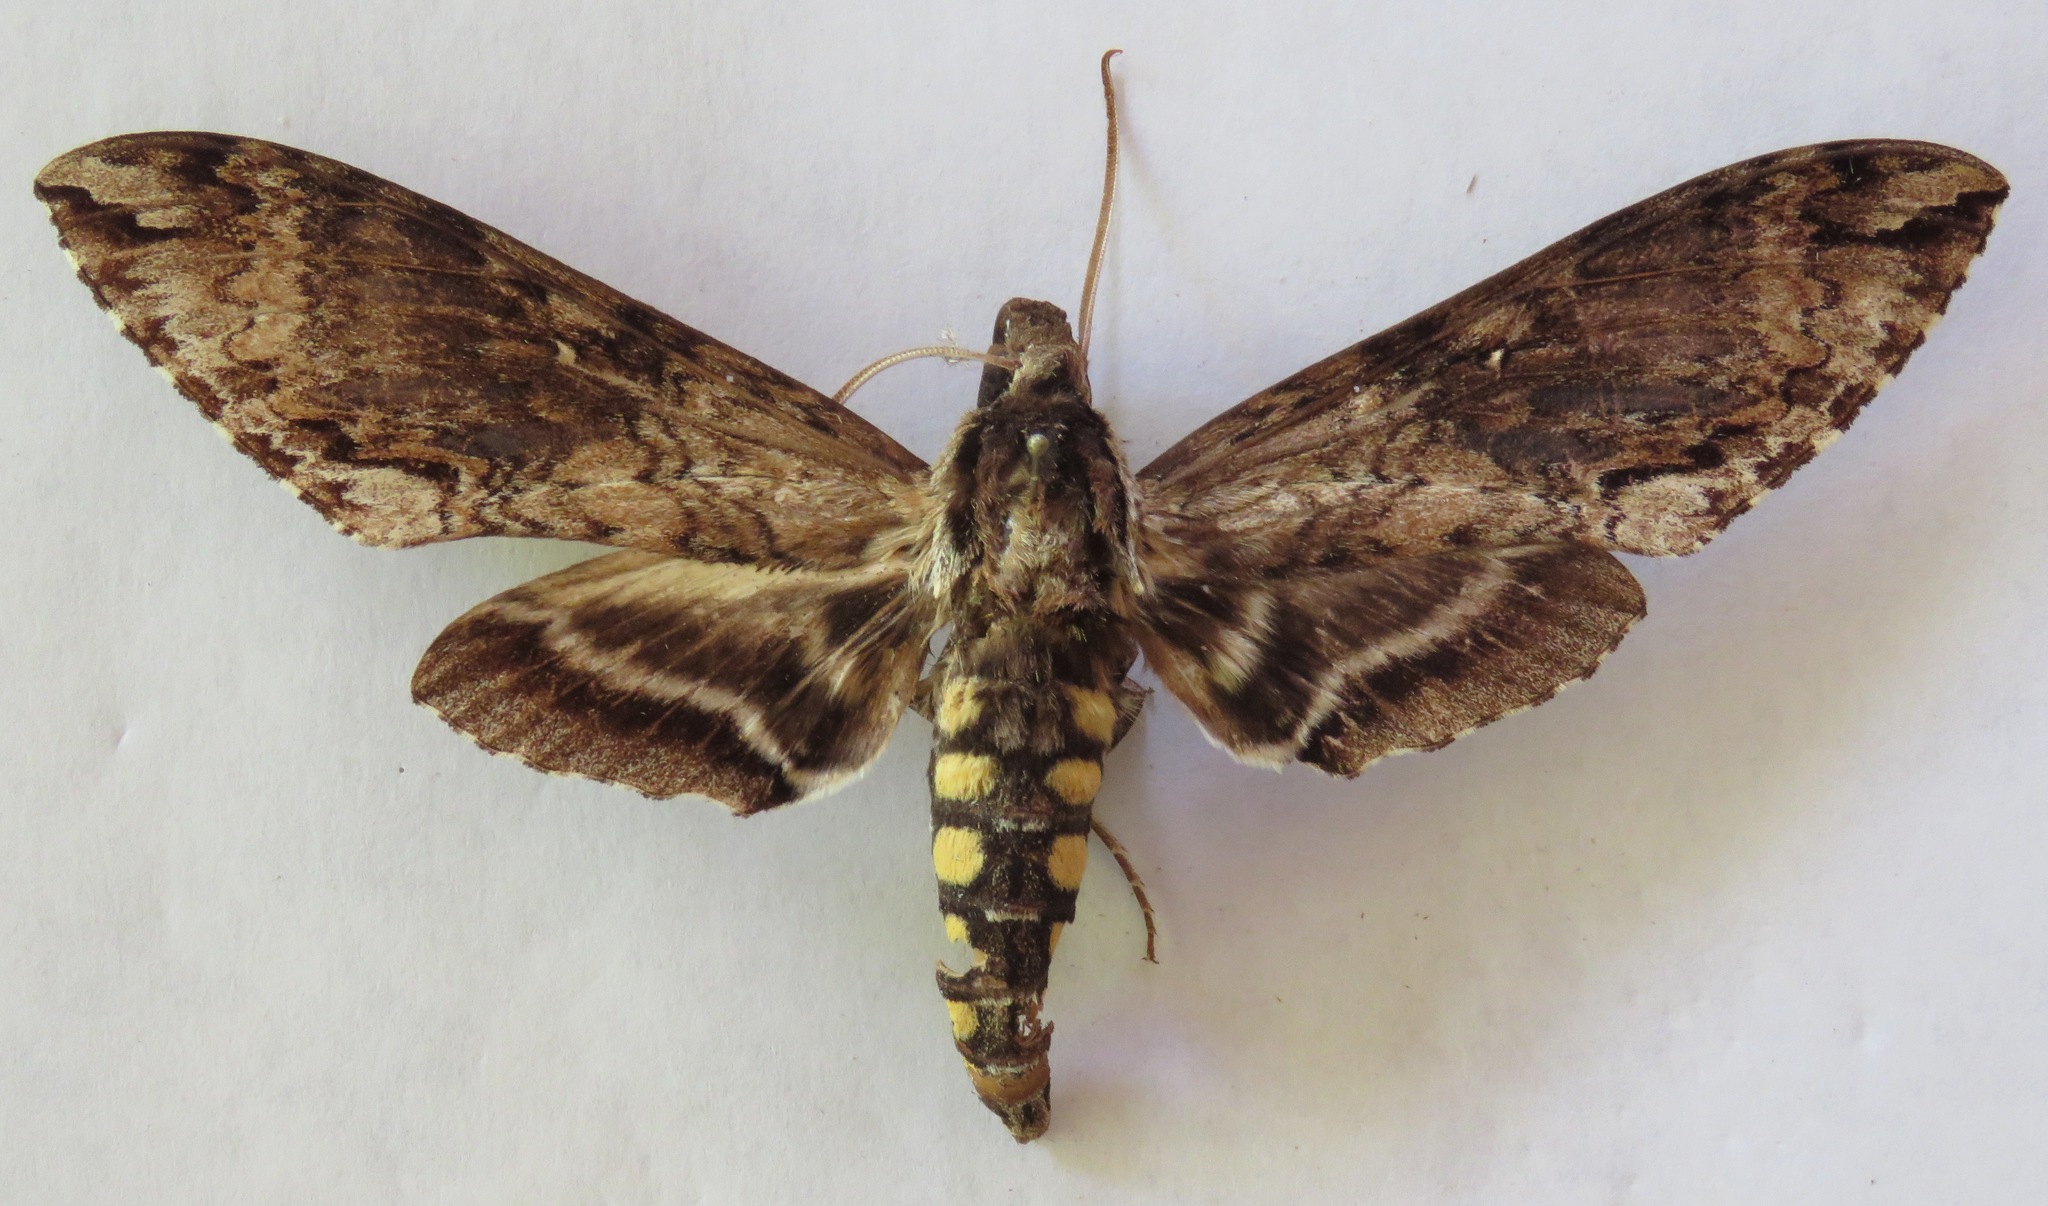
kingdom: Animalia
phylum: Arthropoda
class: Insecta
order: Lepidoptera
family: Sphingidae
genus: Manduca
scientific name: Manduca pellenia
